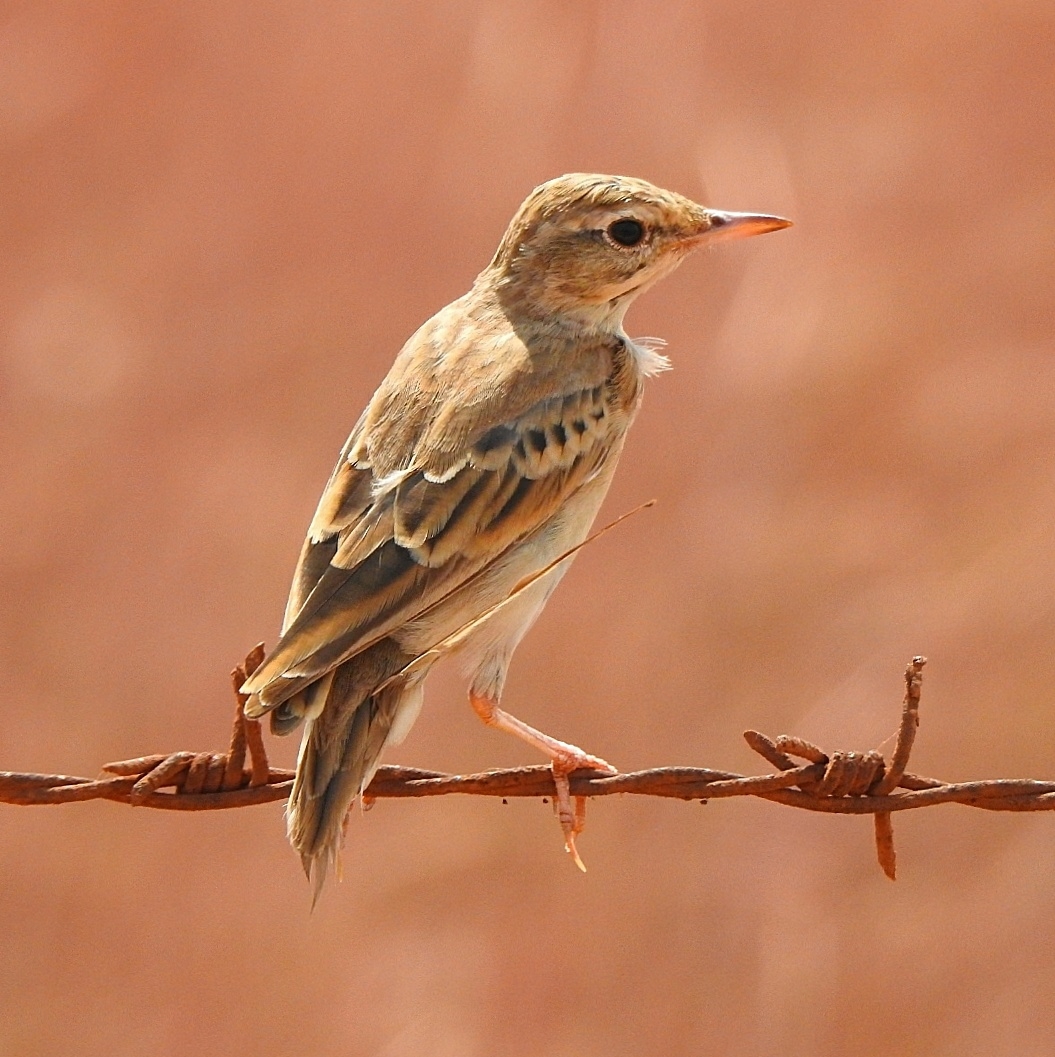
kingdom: Animalia
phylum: Chordata
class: Aves
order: Passeriformes
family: Motacillidae
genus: Anthus
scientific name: Anthus rufulus
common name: Paddyfield pipit
